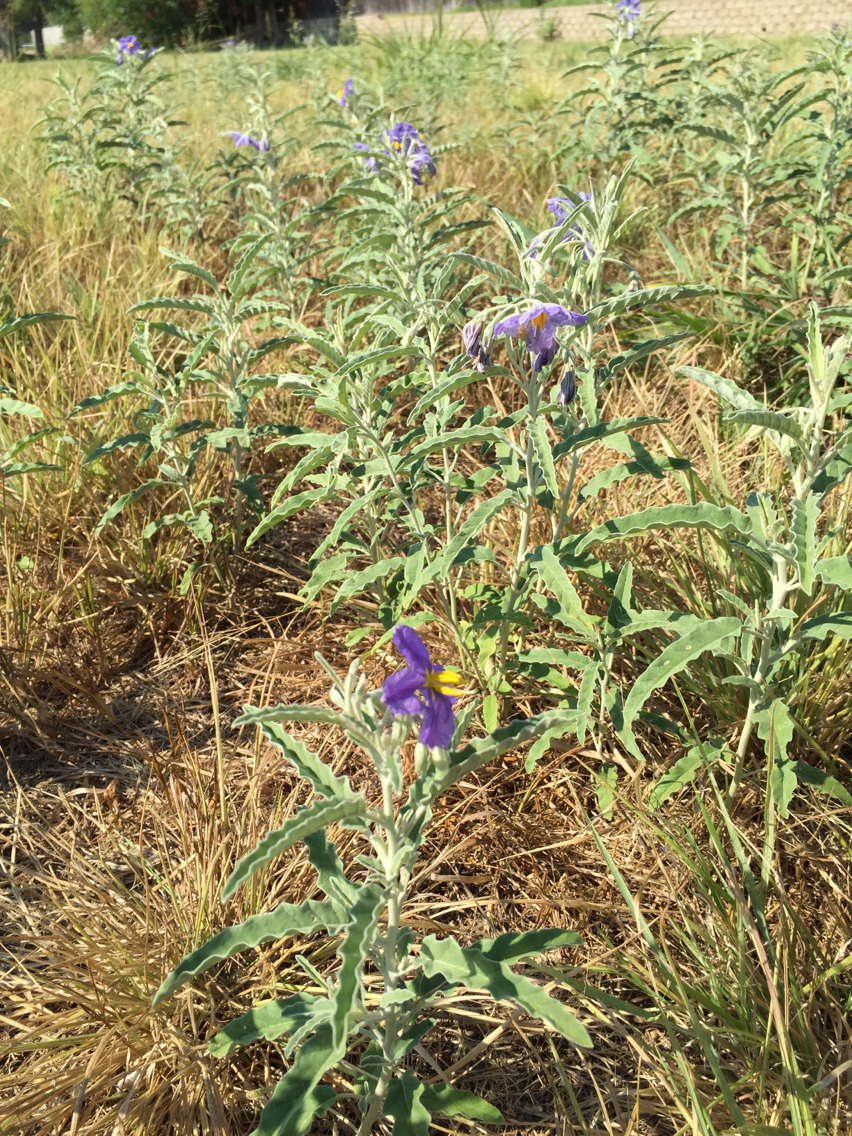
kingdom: Plantae
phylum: Tracheophyta
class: Magnoliopsida
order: Solanales
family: Solanaceae
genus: Solanum
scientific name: Solanum elaeagnifolium
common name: Silverleaf nightshade
